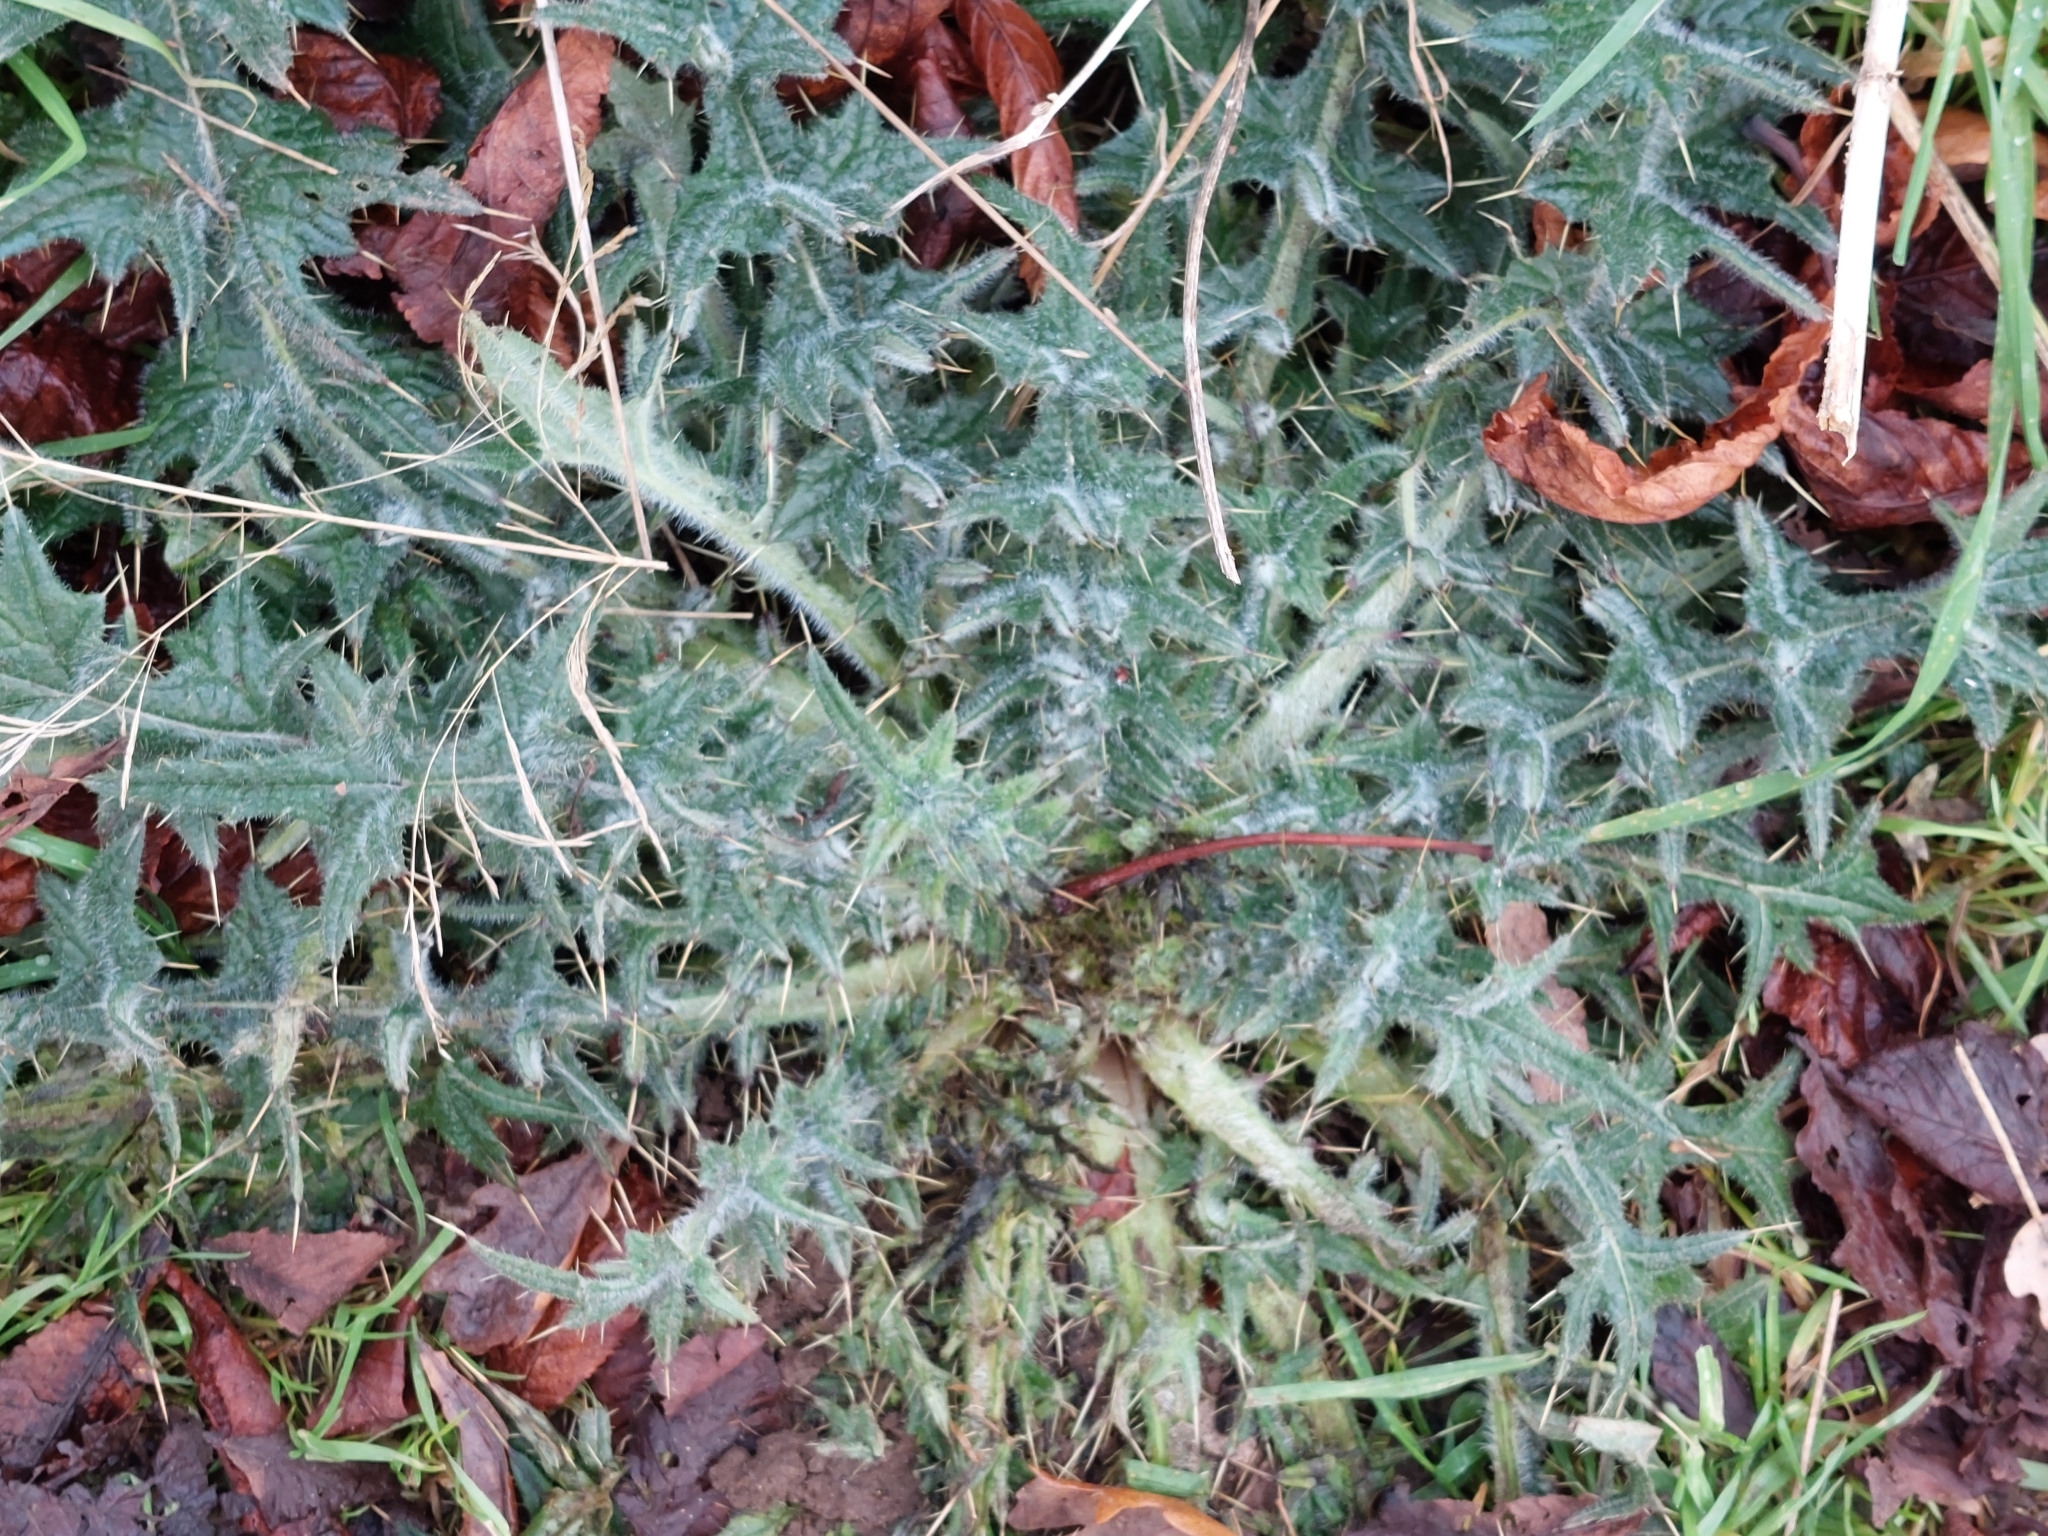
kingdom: Plantae
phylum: Tracheophyta
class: Magnoliopsida
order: Asterales
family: Asteraceae
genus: Cirsium
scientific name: Cirsium vulgare
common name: Bull thistle
